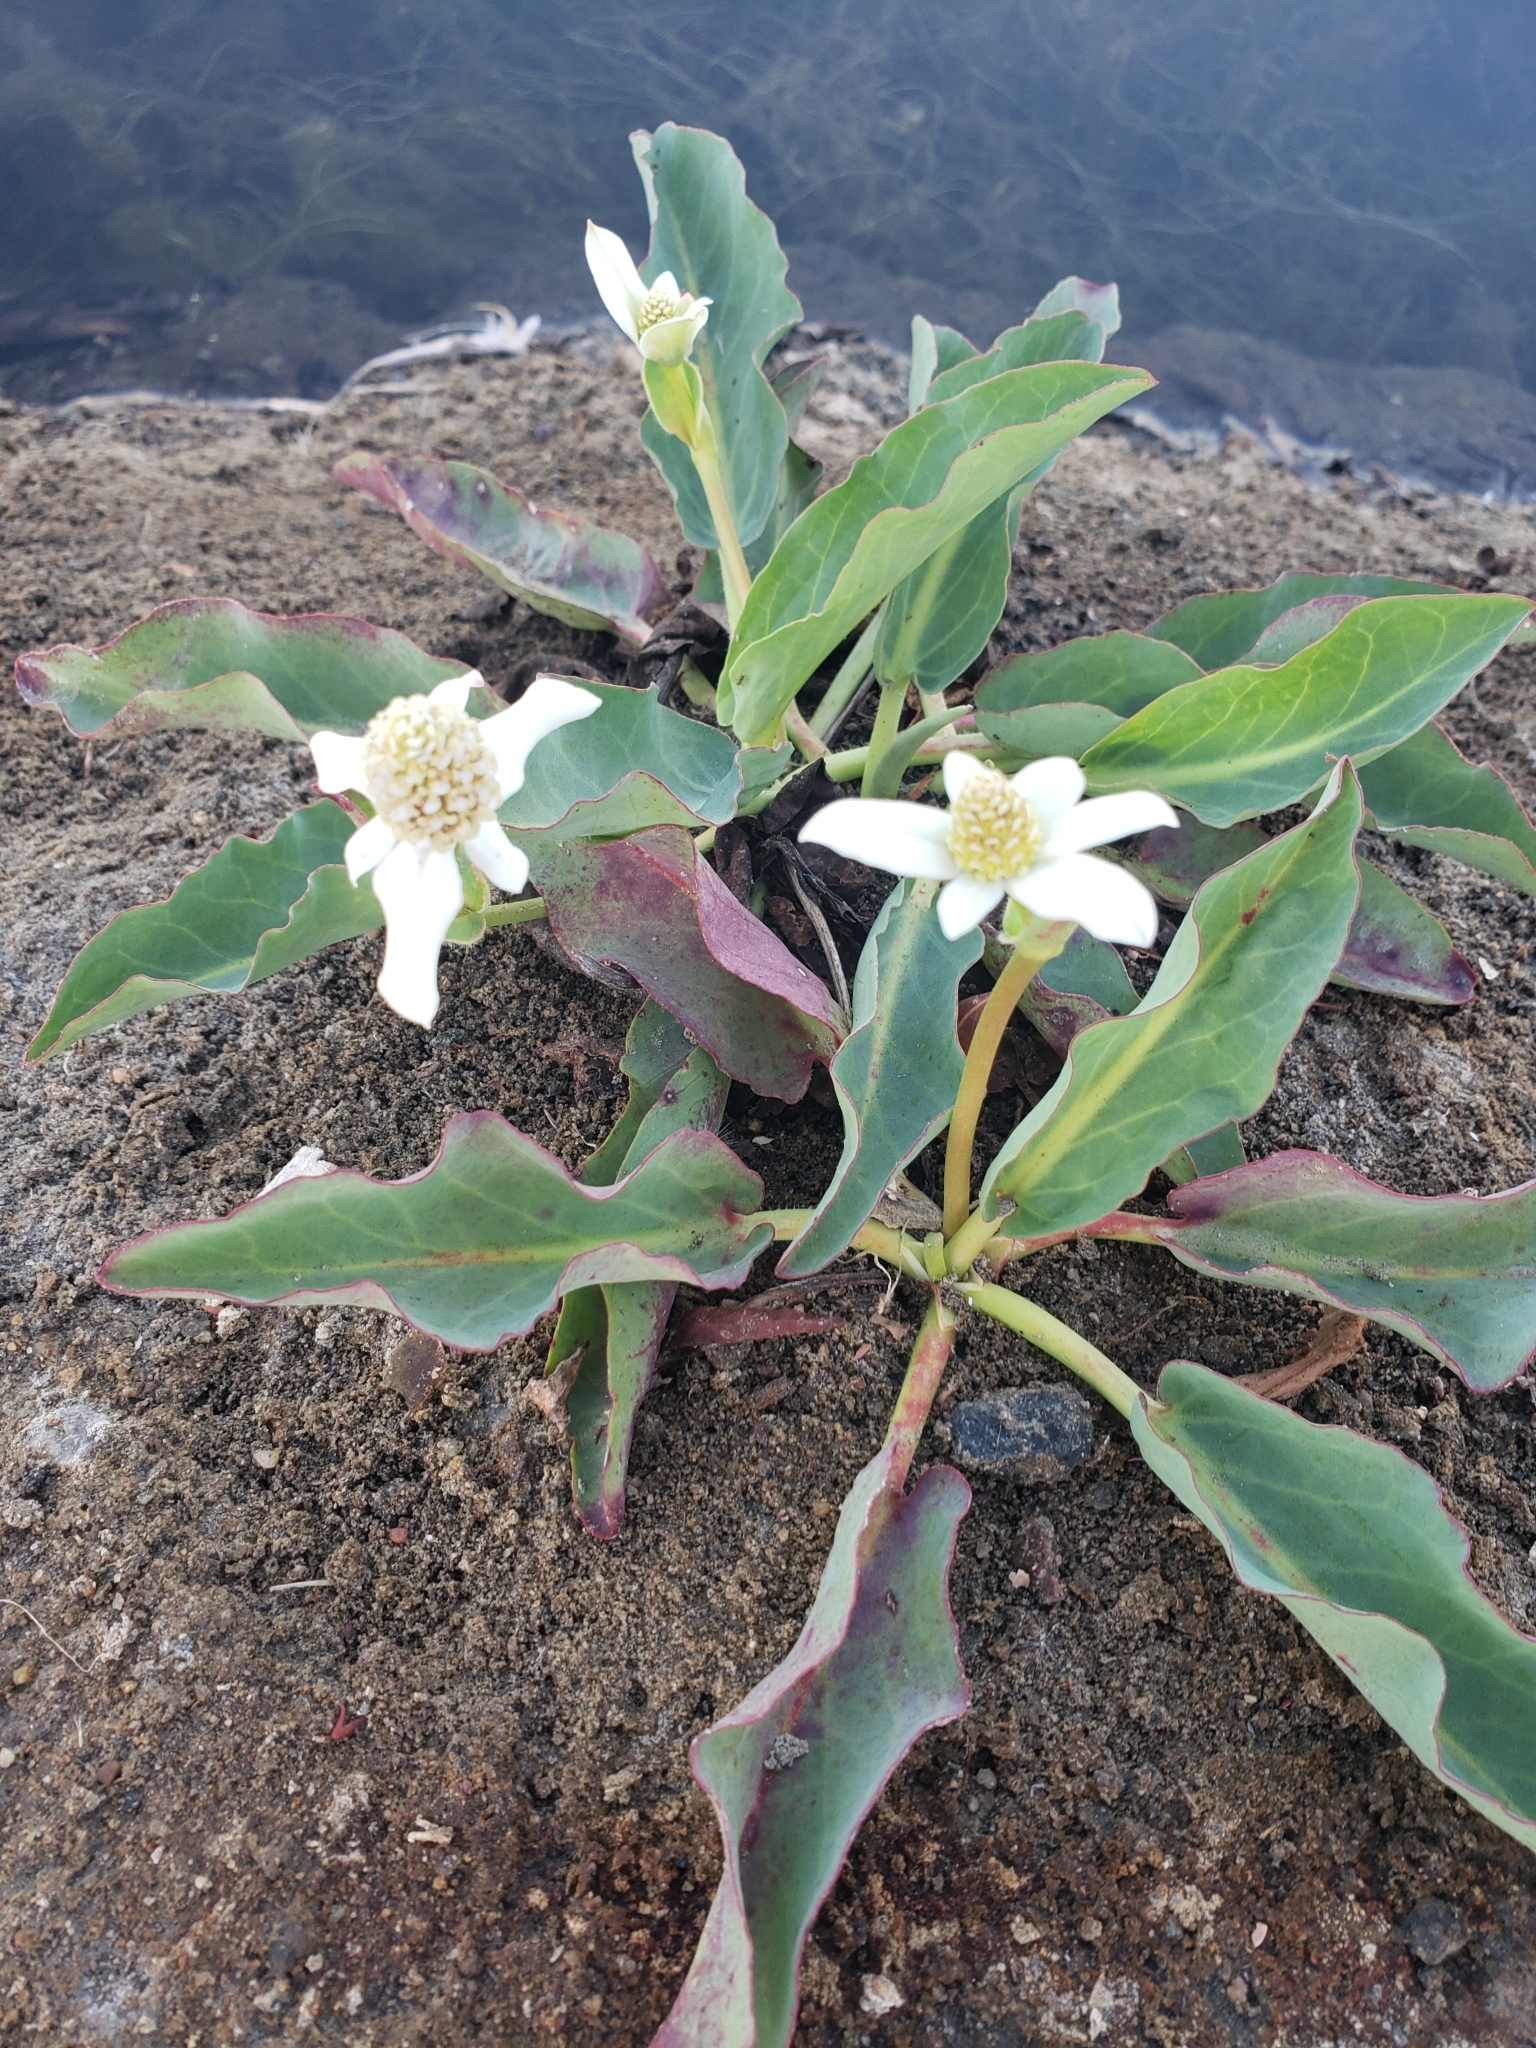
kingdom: Plantae
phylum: Tracheophyta
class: Magnoliopsida
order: Piperales
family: Saururaceae
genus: Anemopsis
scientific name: Anemopsis californica
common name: Apache-beads
